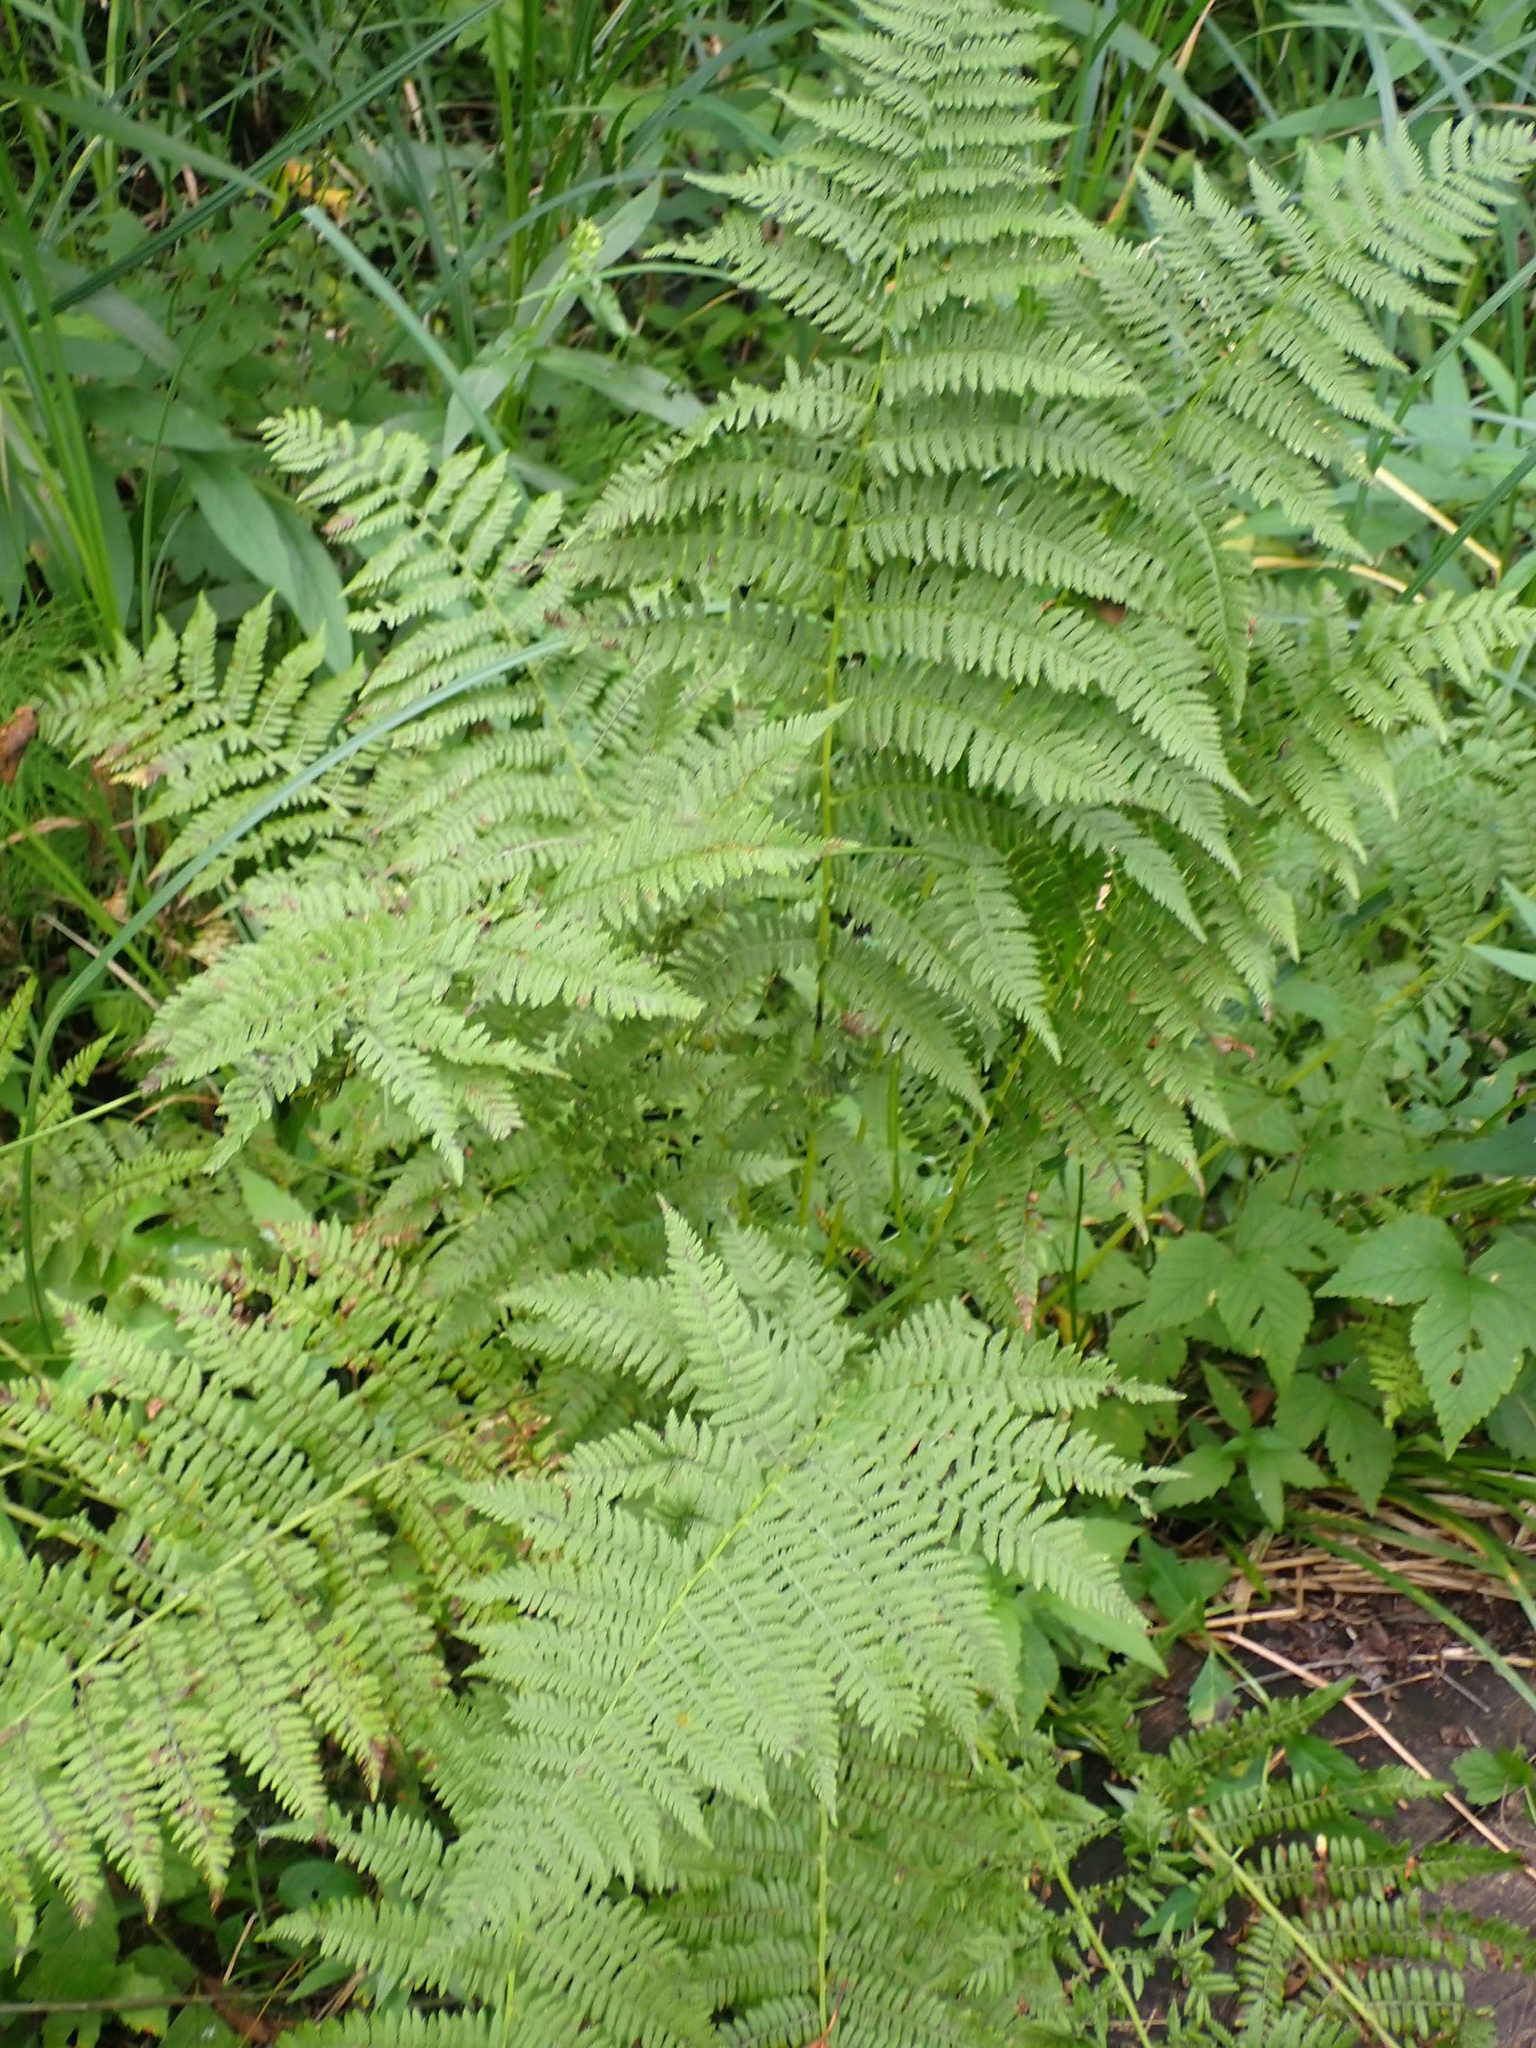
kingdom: Plantae
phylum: Tracheophyta
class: Polypodiopsida
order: Polypodiales
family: Athyriaceae
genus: Athyrium
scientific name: Athyrium angustum
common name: Northern lady fern
